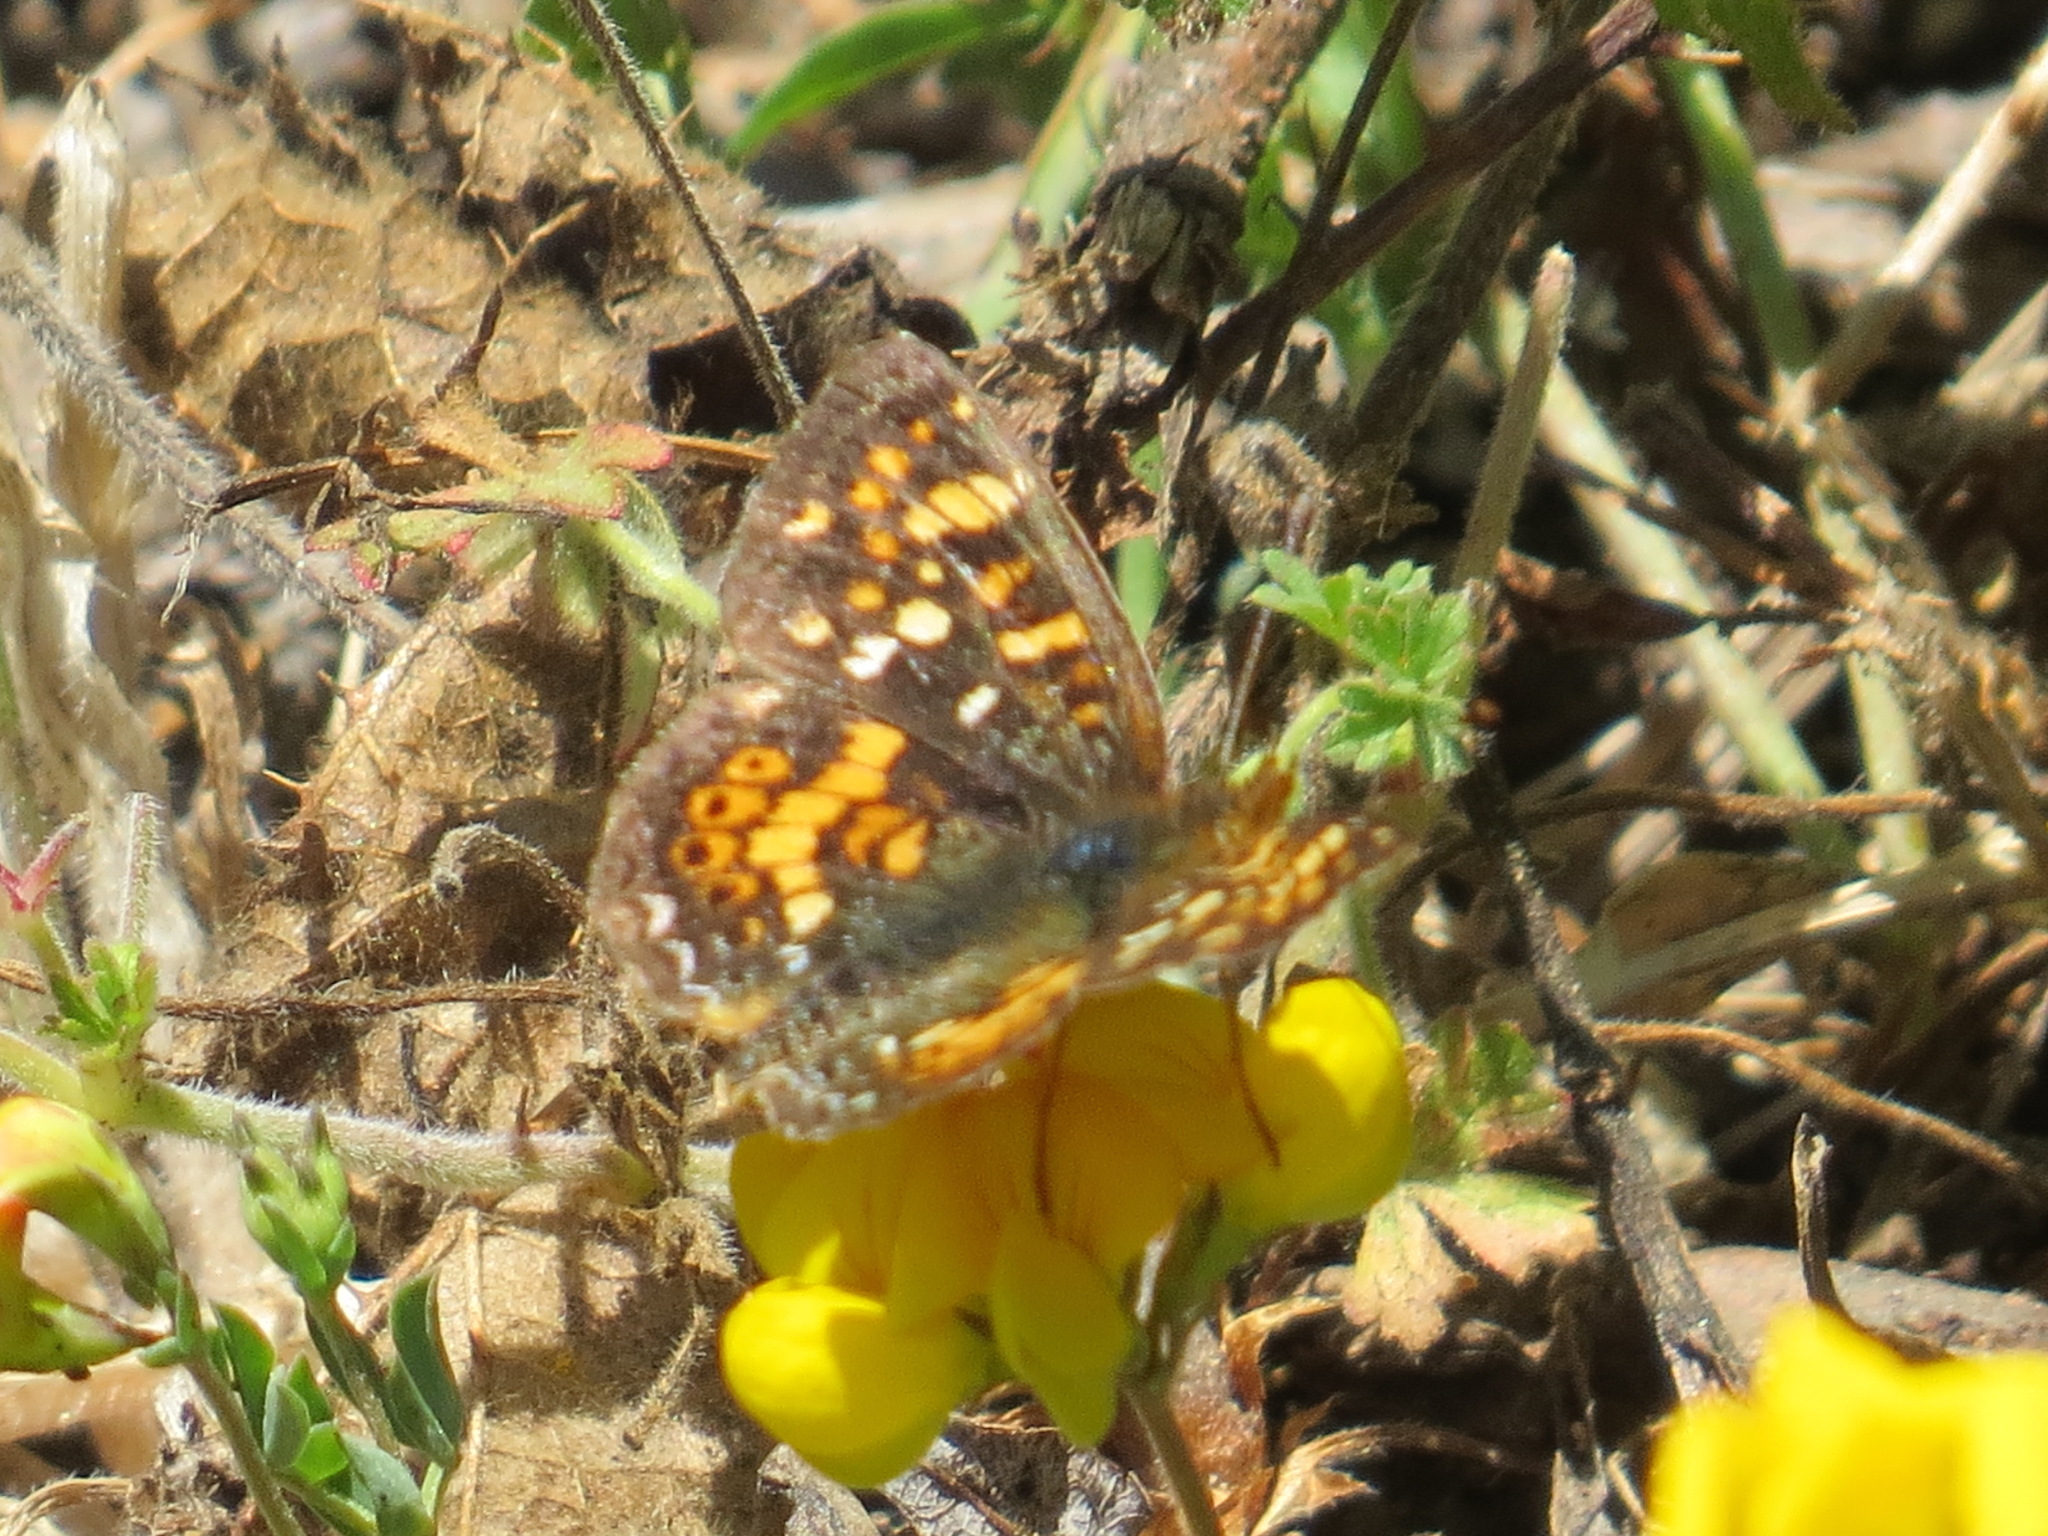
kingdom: Animalia
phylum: Arthropoda
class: Insecta
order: Lepidoptera
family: Nymphalidae
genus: Phyciodes
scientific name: Phyciodes tharos
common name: Pearl crescent
